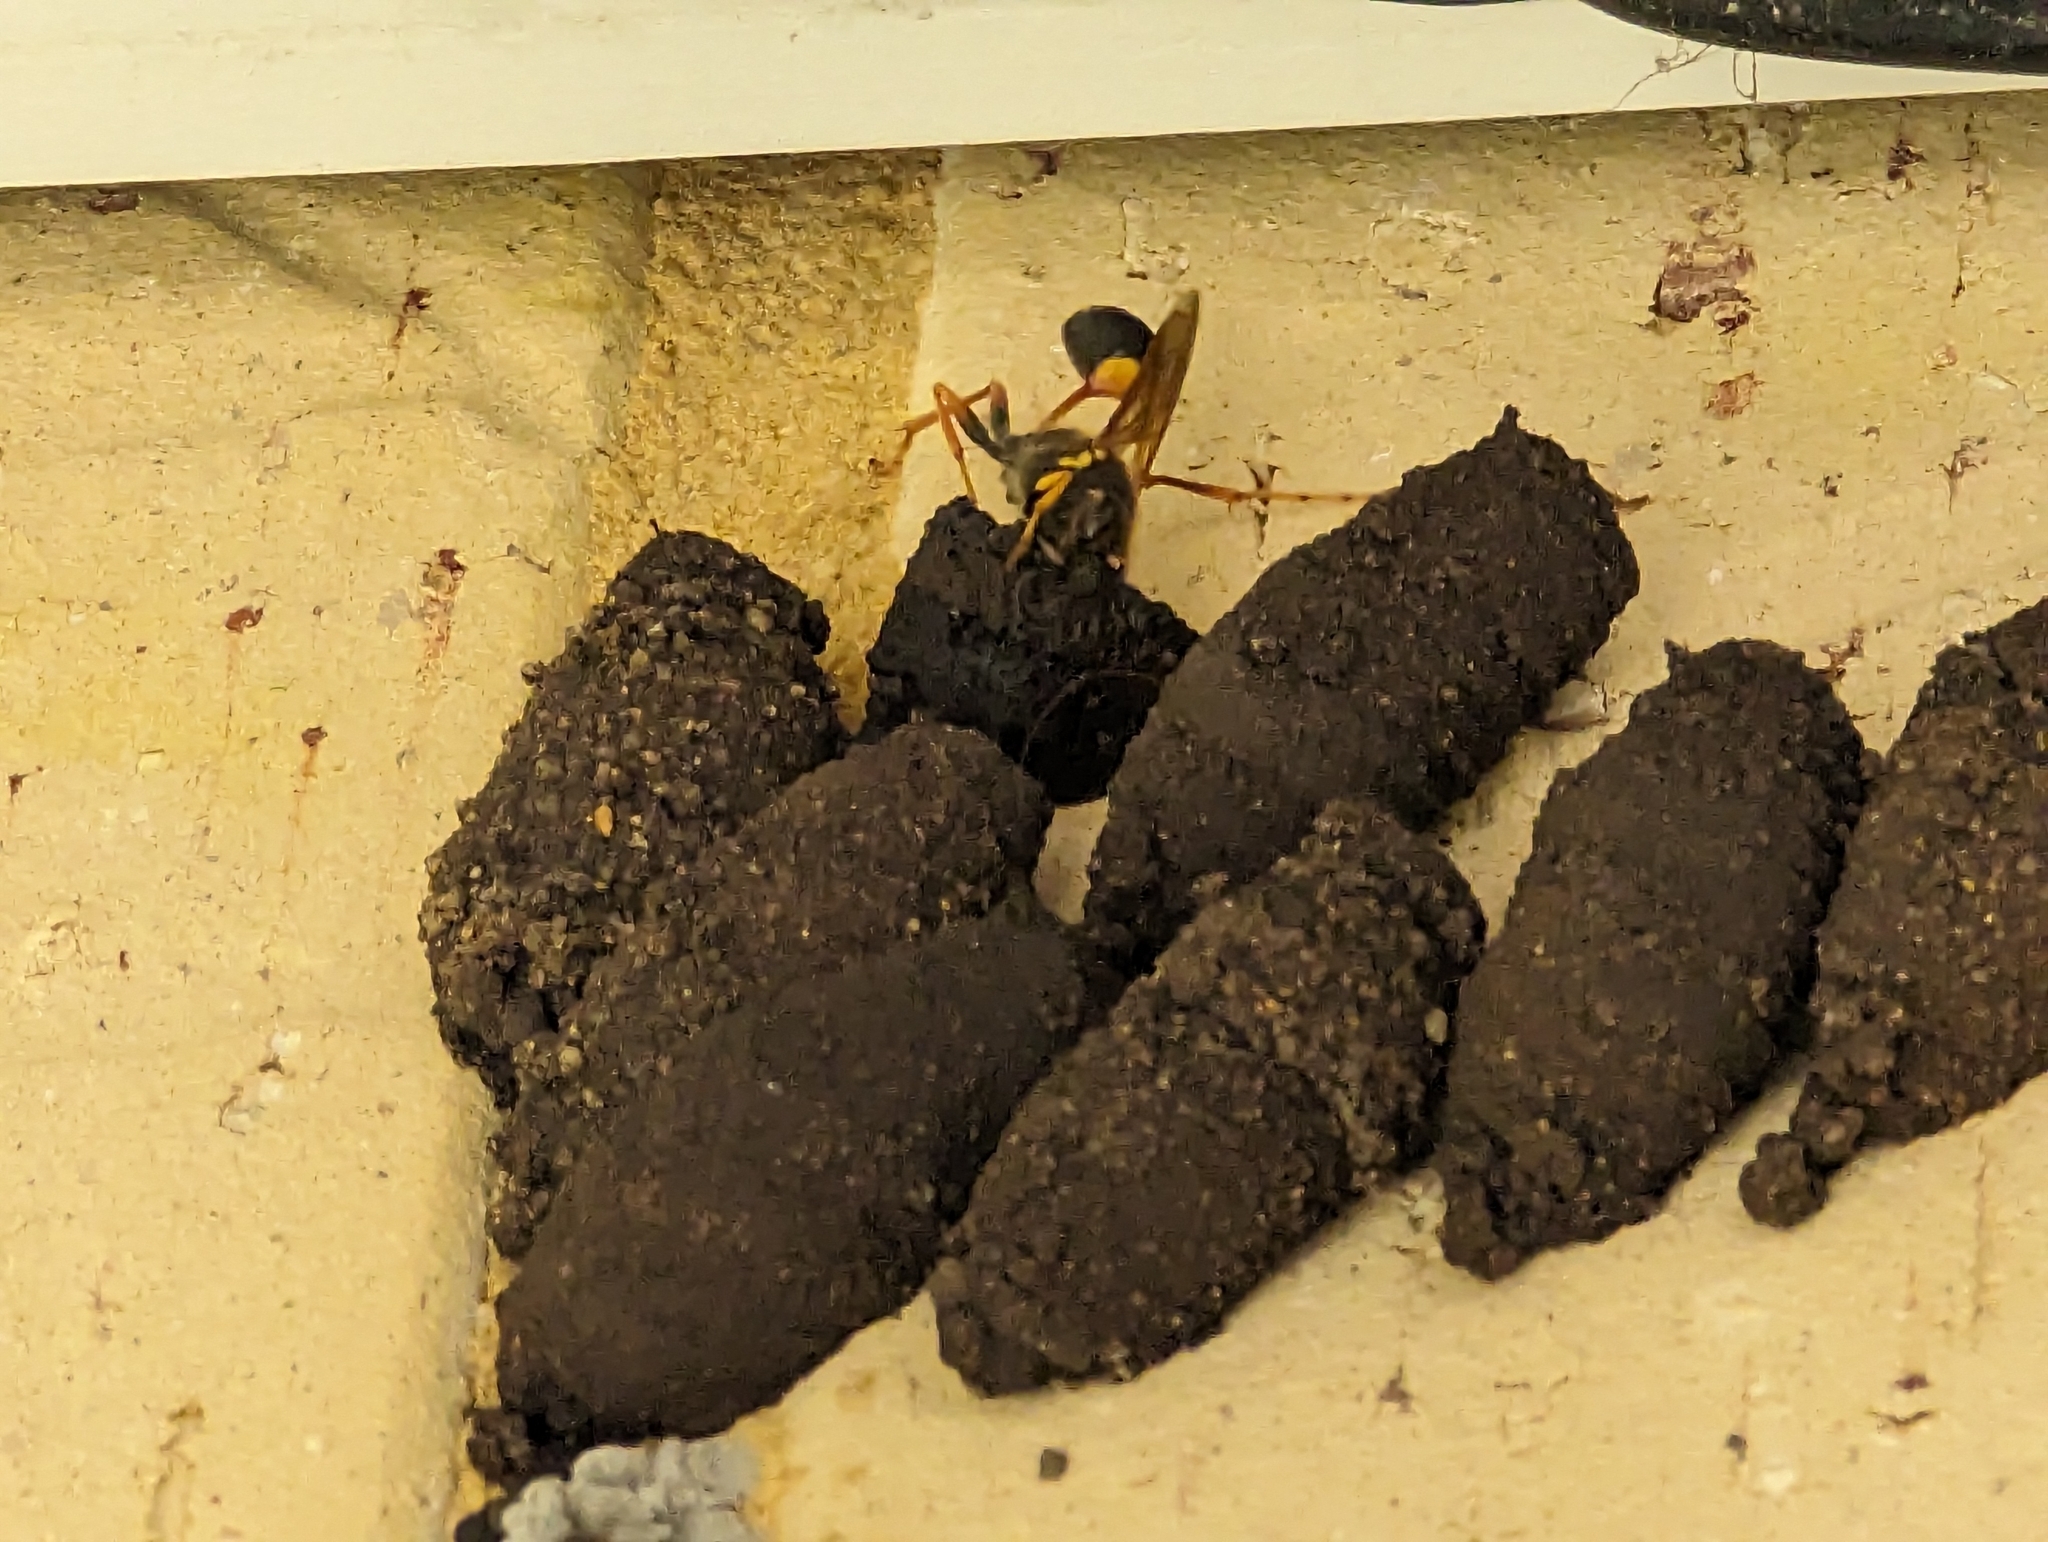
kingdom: Animalia
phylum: Arthropoda
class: Insecta
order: Hymenoptera
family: Sphecidae
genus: Sceliphron
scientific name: Sceliphron formosum
